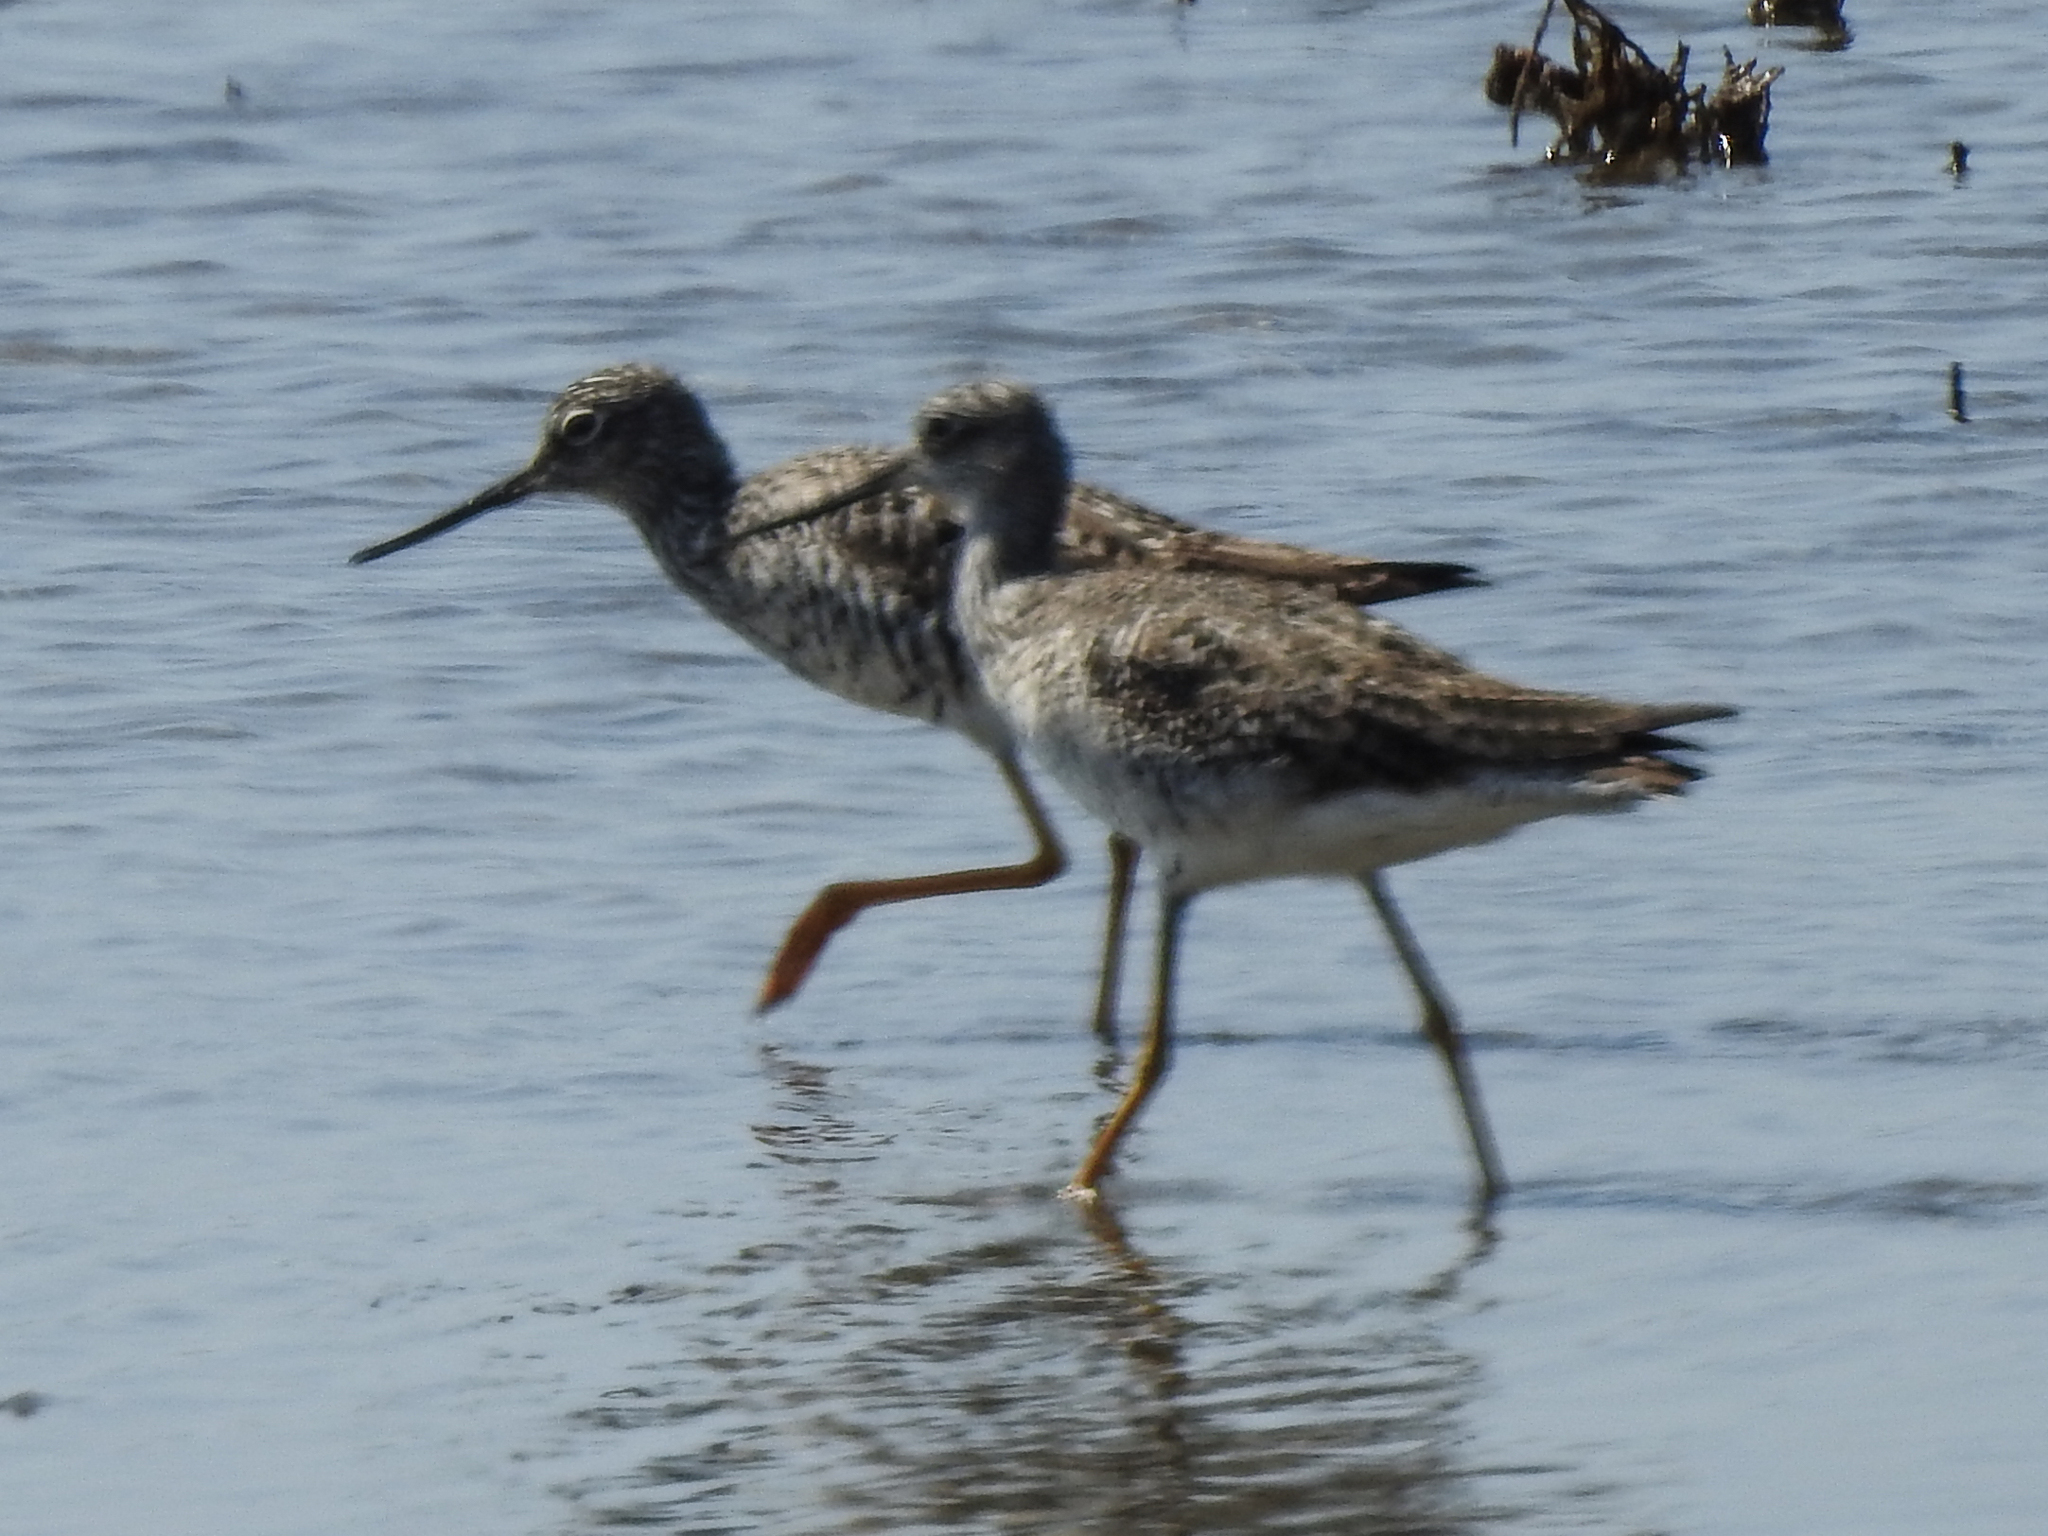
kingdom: Animalia
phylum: Chordata
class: Aves
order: Charadriiformes
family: Scolopacidae
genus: Tringa
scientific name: Tringa melanoleuca
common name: Greater yellowlegs
